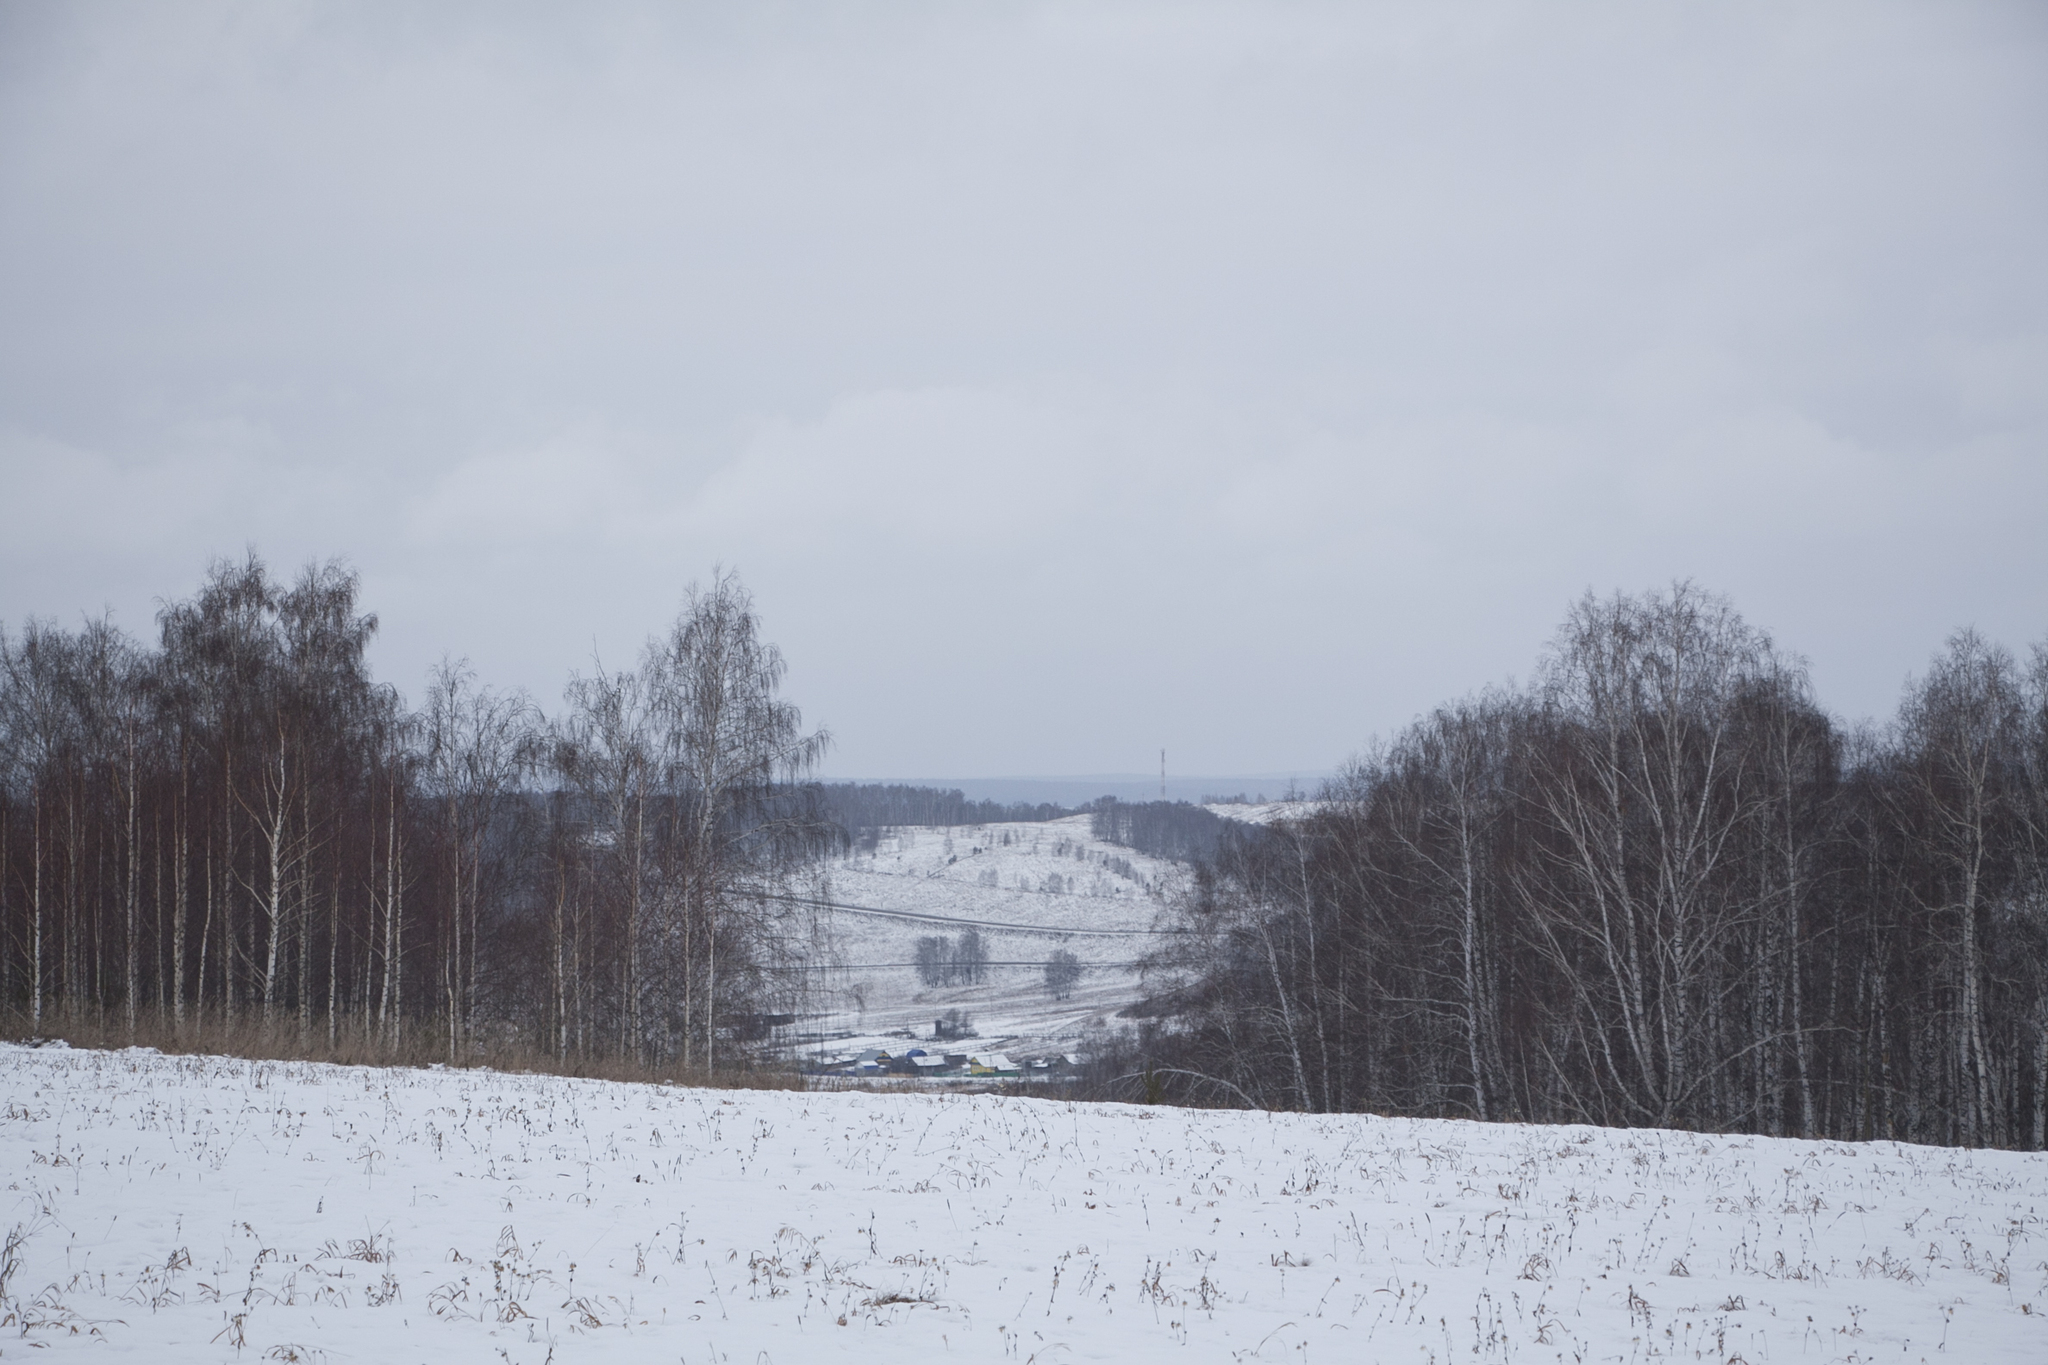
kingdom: Plantae
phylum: Tracheophyta
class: Magnoliopsida
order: Fagales
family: Betulaceae
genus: Betula
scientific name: Betula pendula
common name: Silver birch
